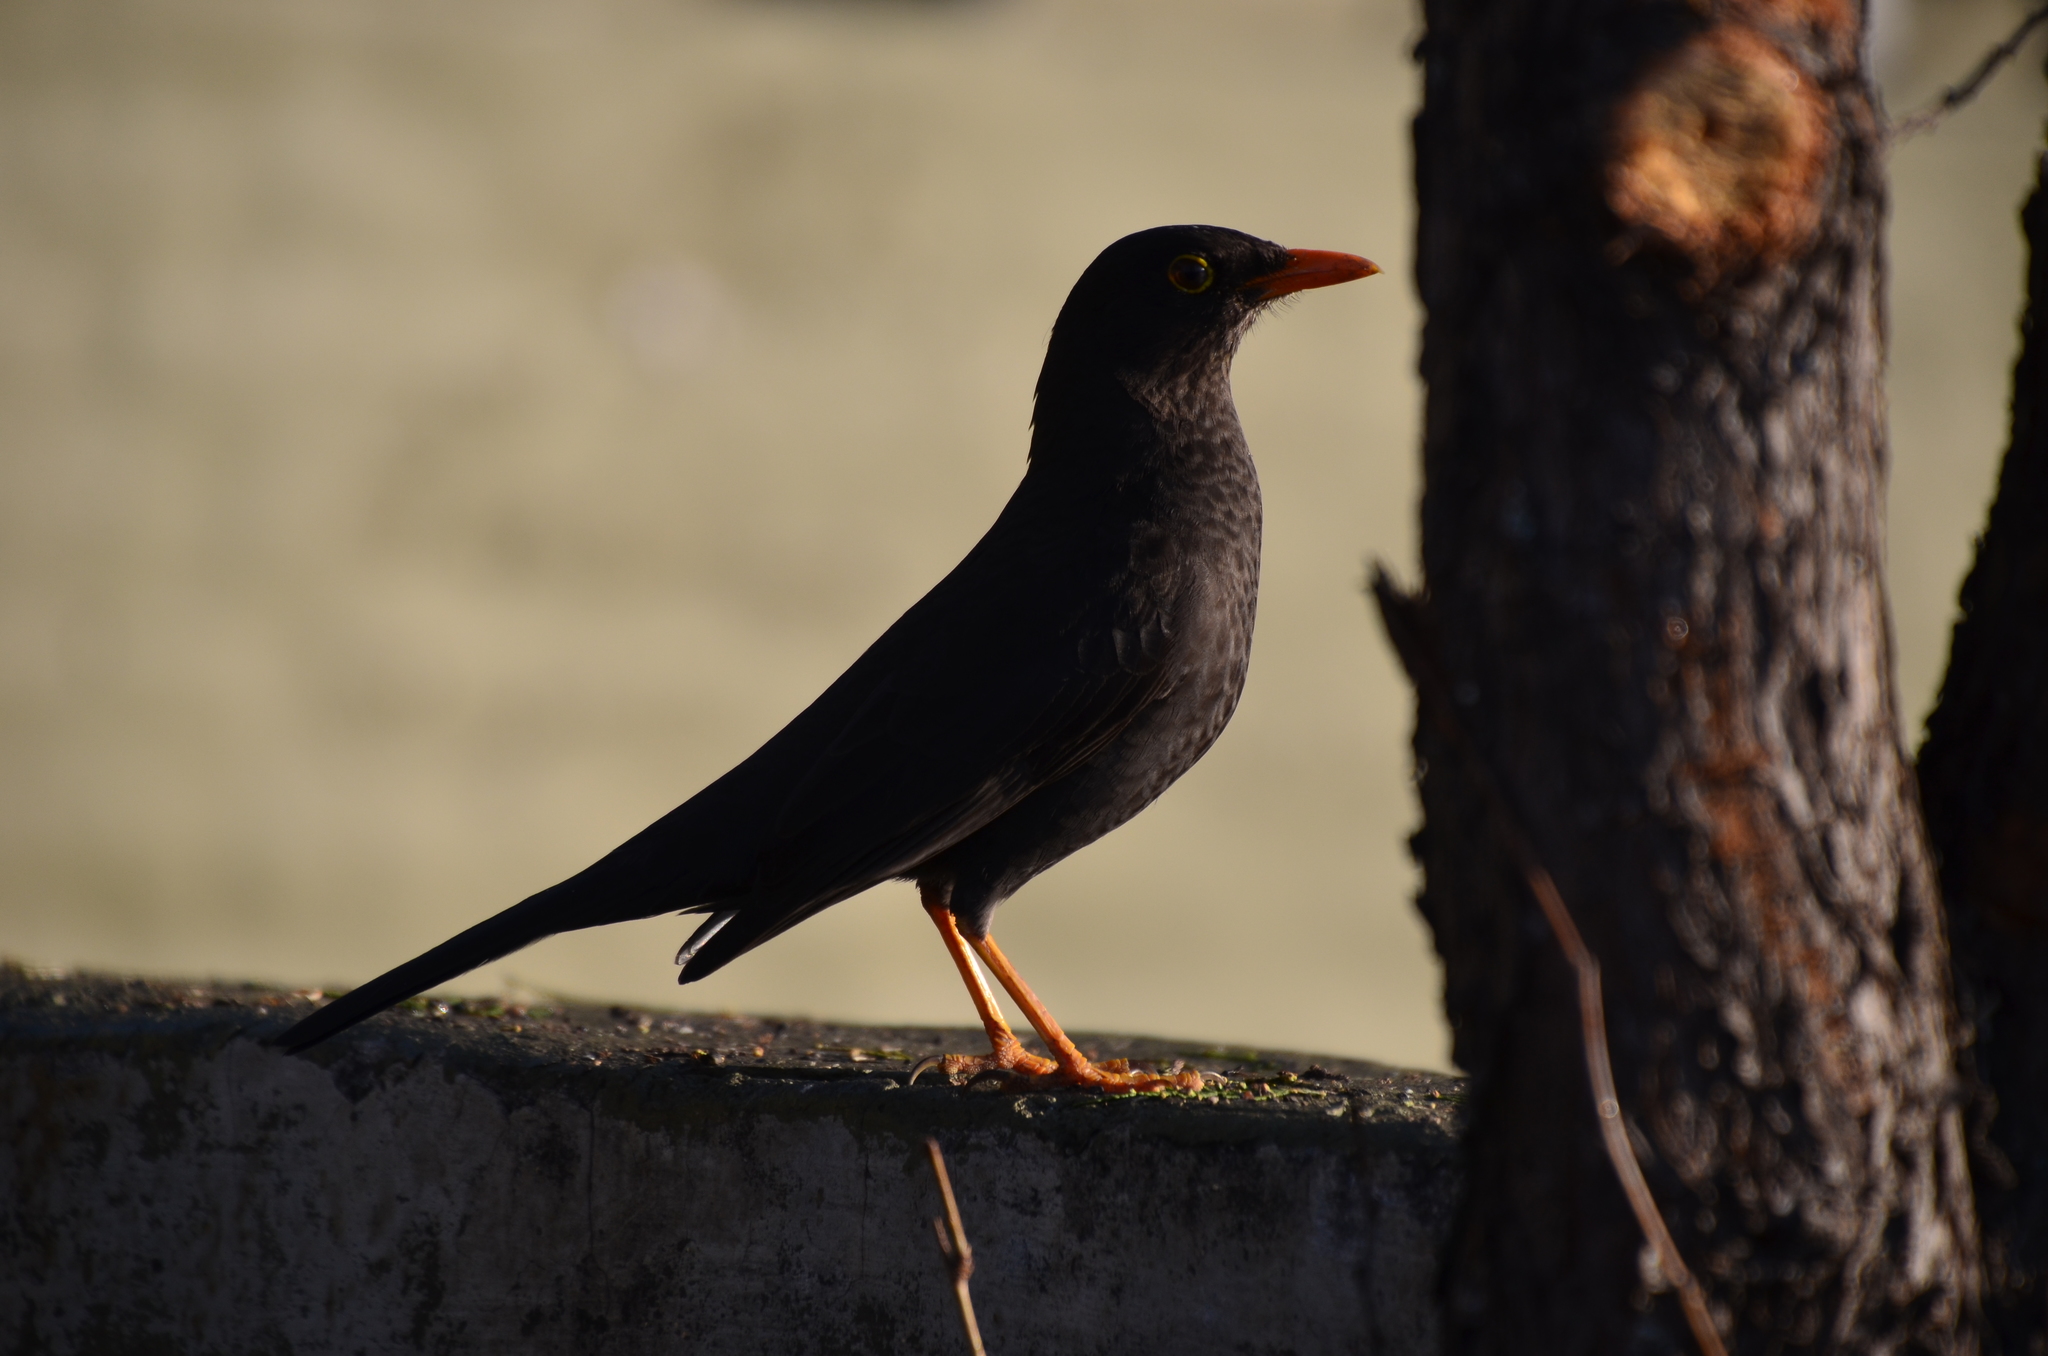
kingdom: Animalia
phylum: Chordata
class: Aves
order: Passeriformes
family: Turdidae
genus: Turdus
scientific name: Turdus chiguanco
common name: Chiguanco thrush
